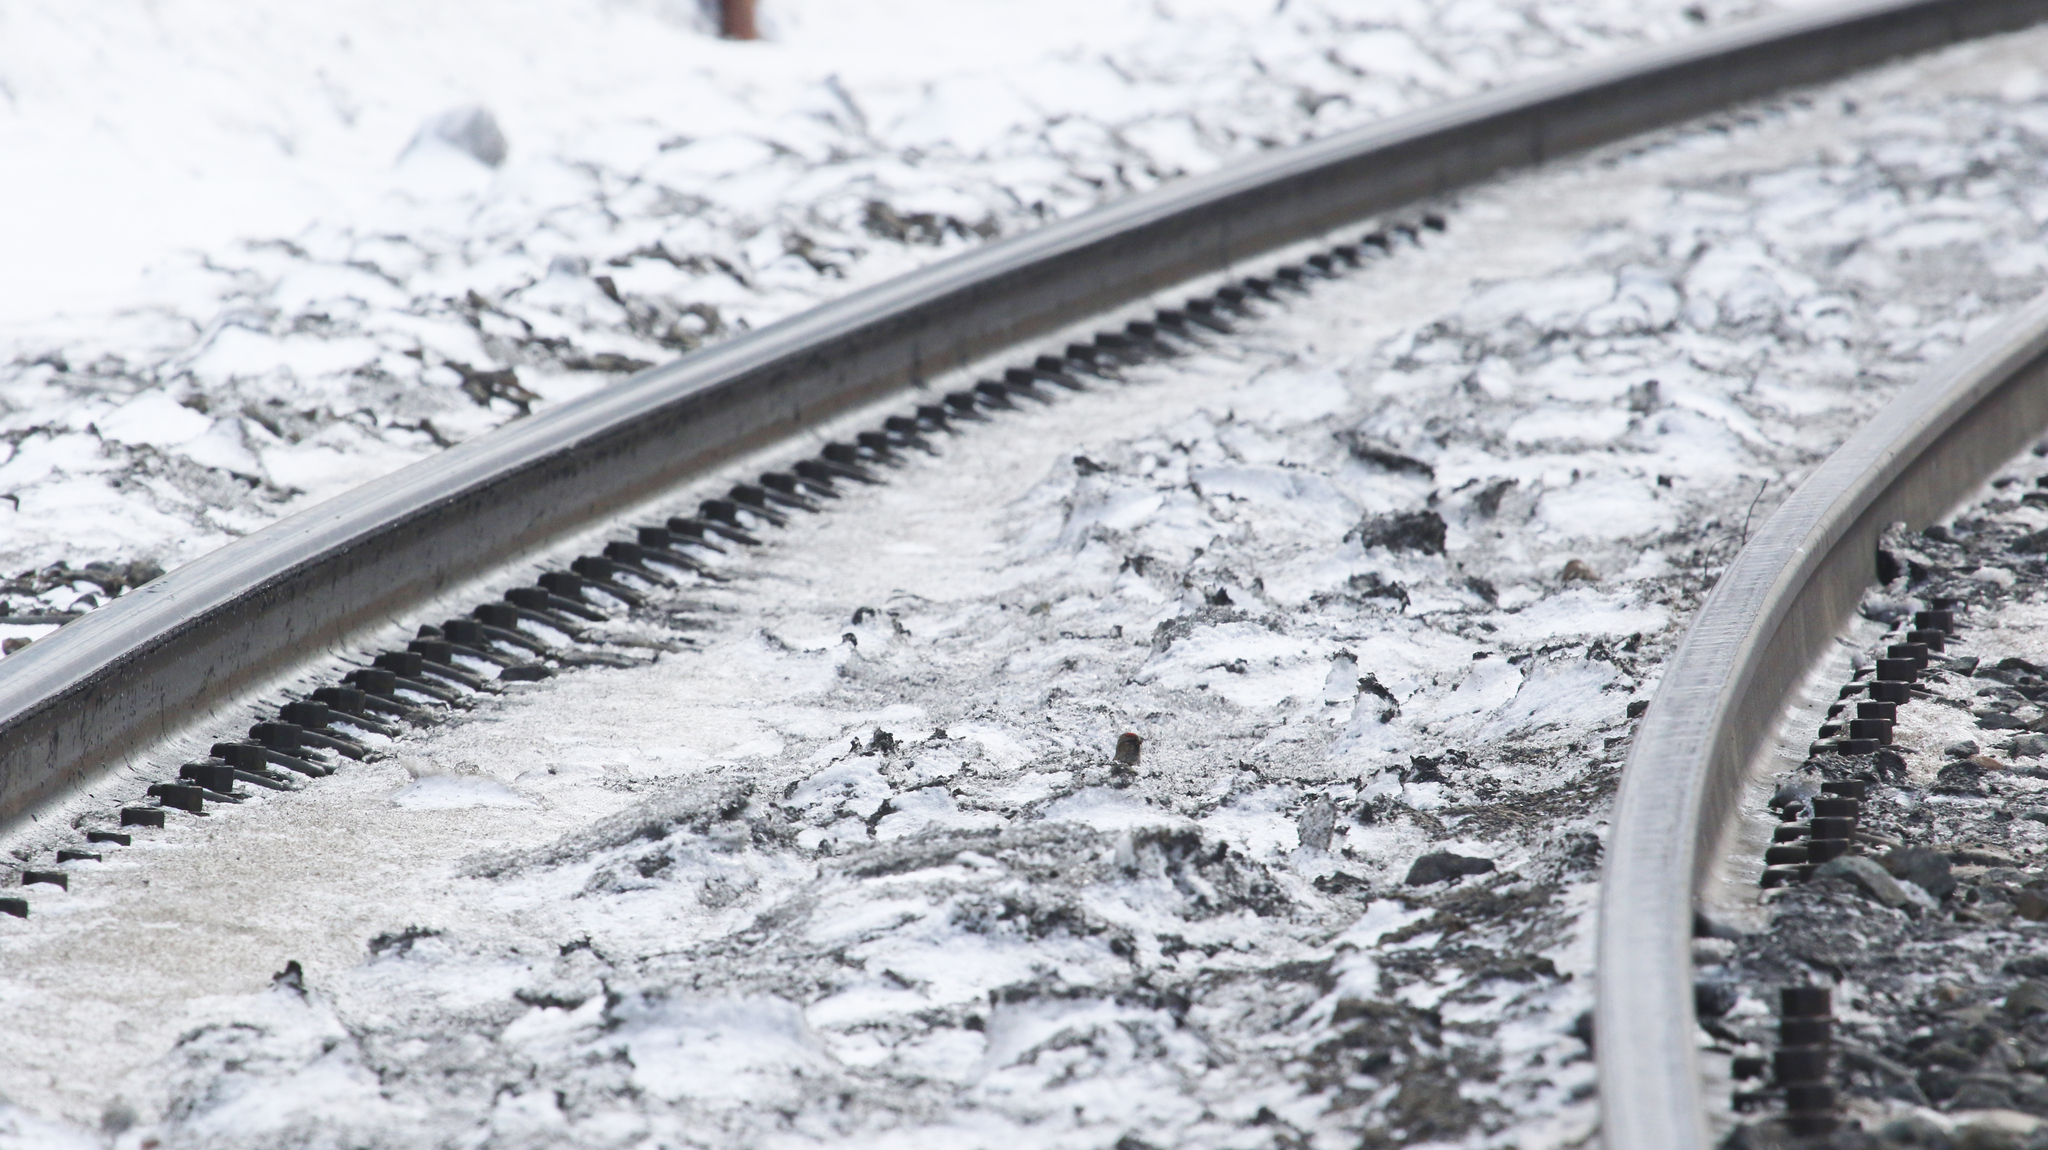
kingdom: Animalia
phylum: Chordata
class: Aves
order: Passeriformes
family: Fringillidae
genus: Acanthis
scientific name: Acanthis flammea
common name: Common redpoll
